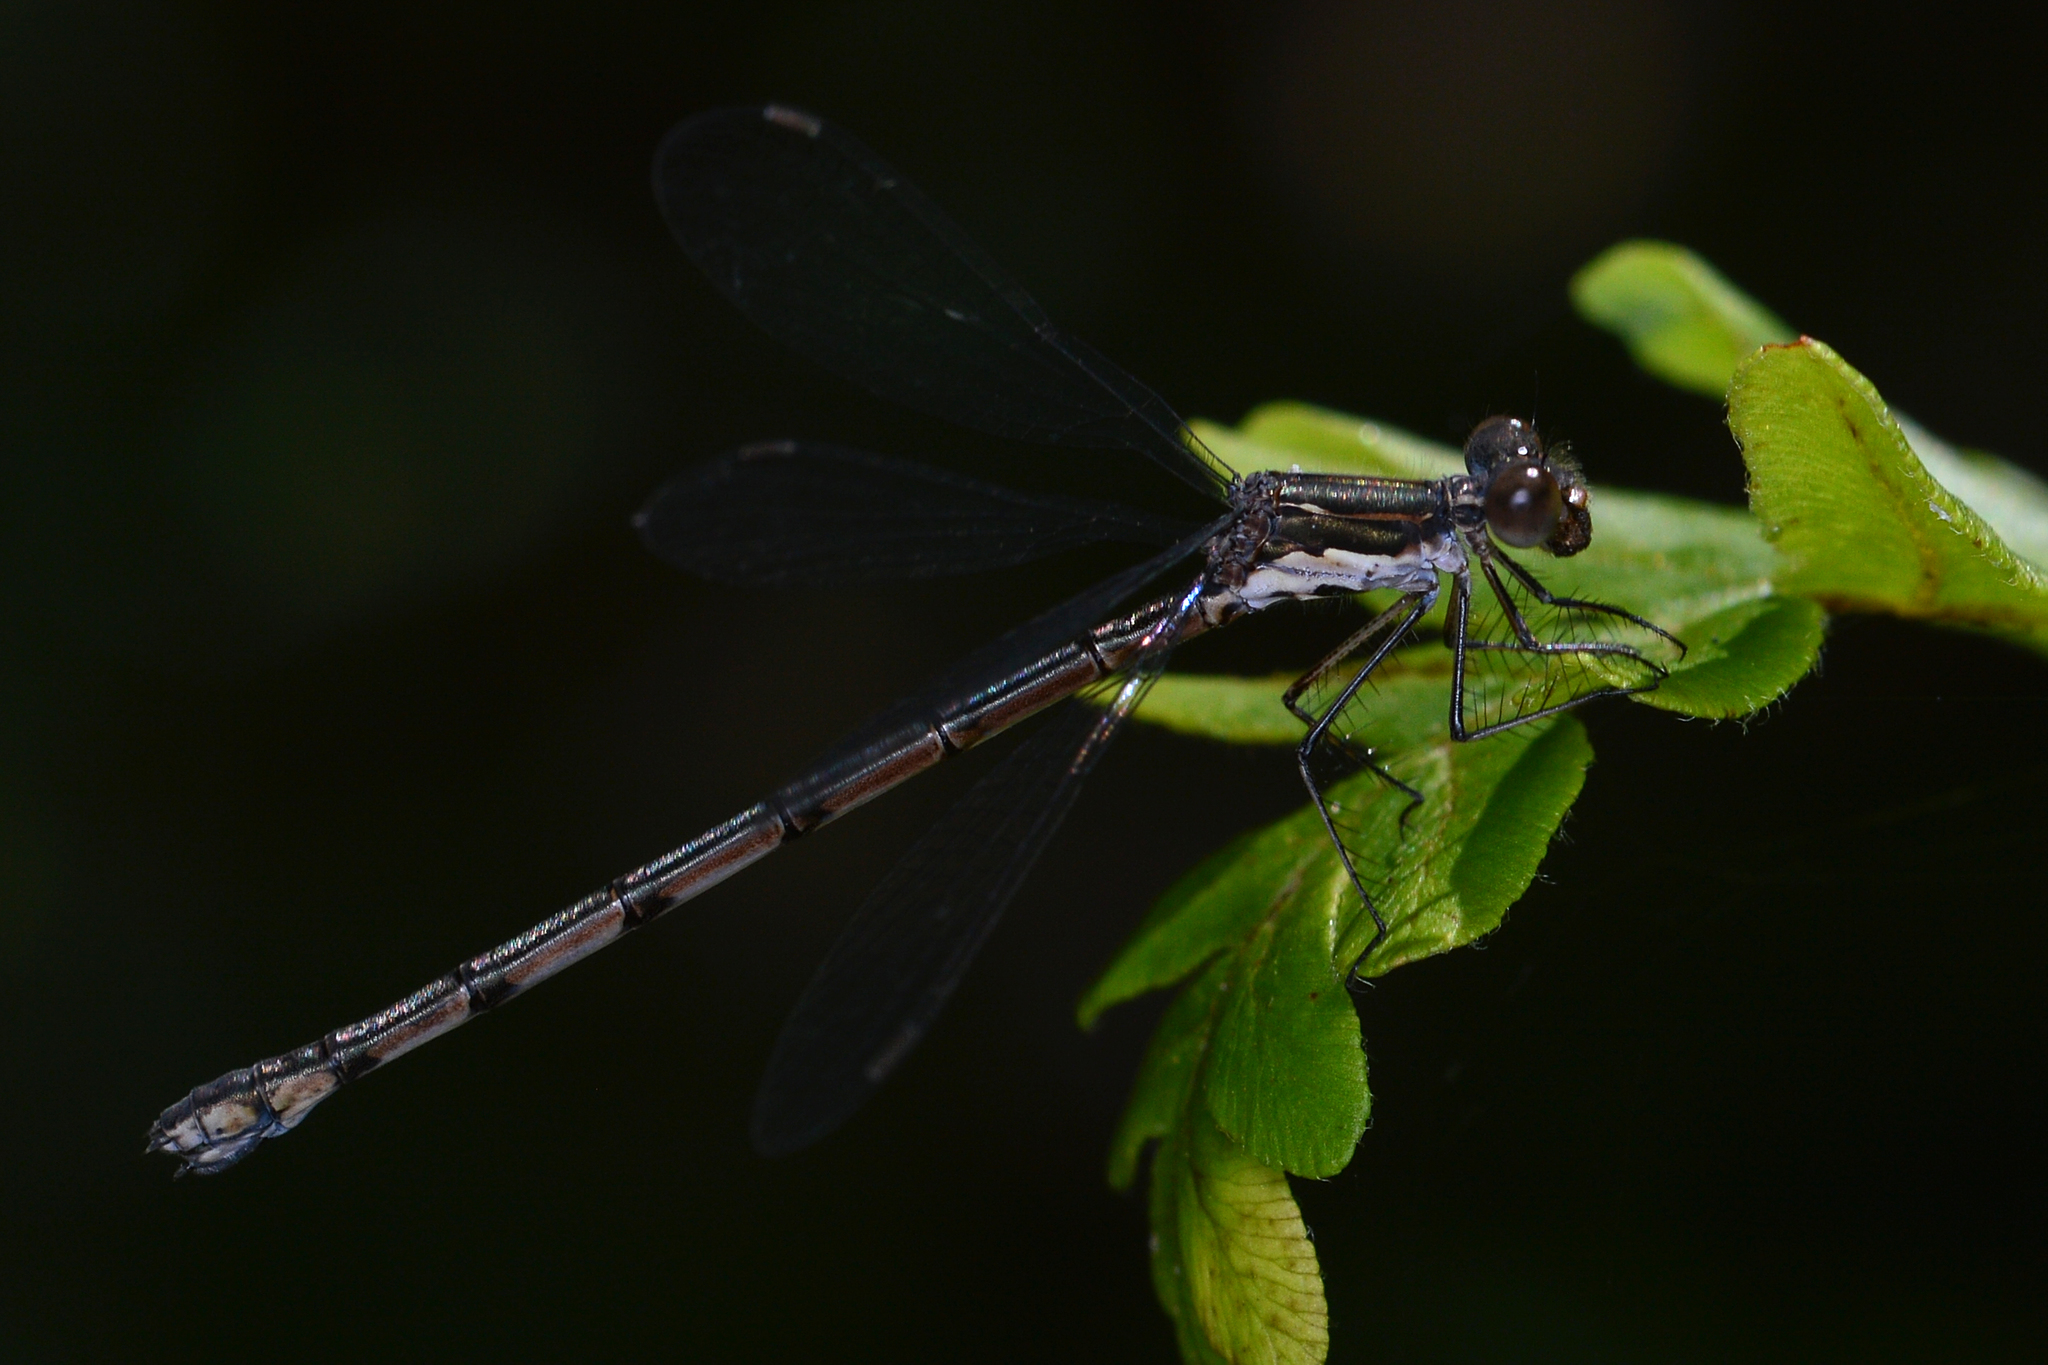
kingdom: Animalia
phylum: Arthropoda
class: Insecta
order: Odonata
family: Lestidae
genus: Lestes
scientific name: Lestes congener
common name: Spotted spreadwing
